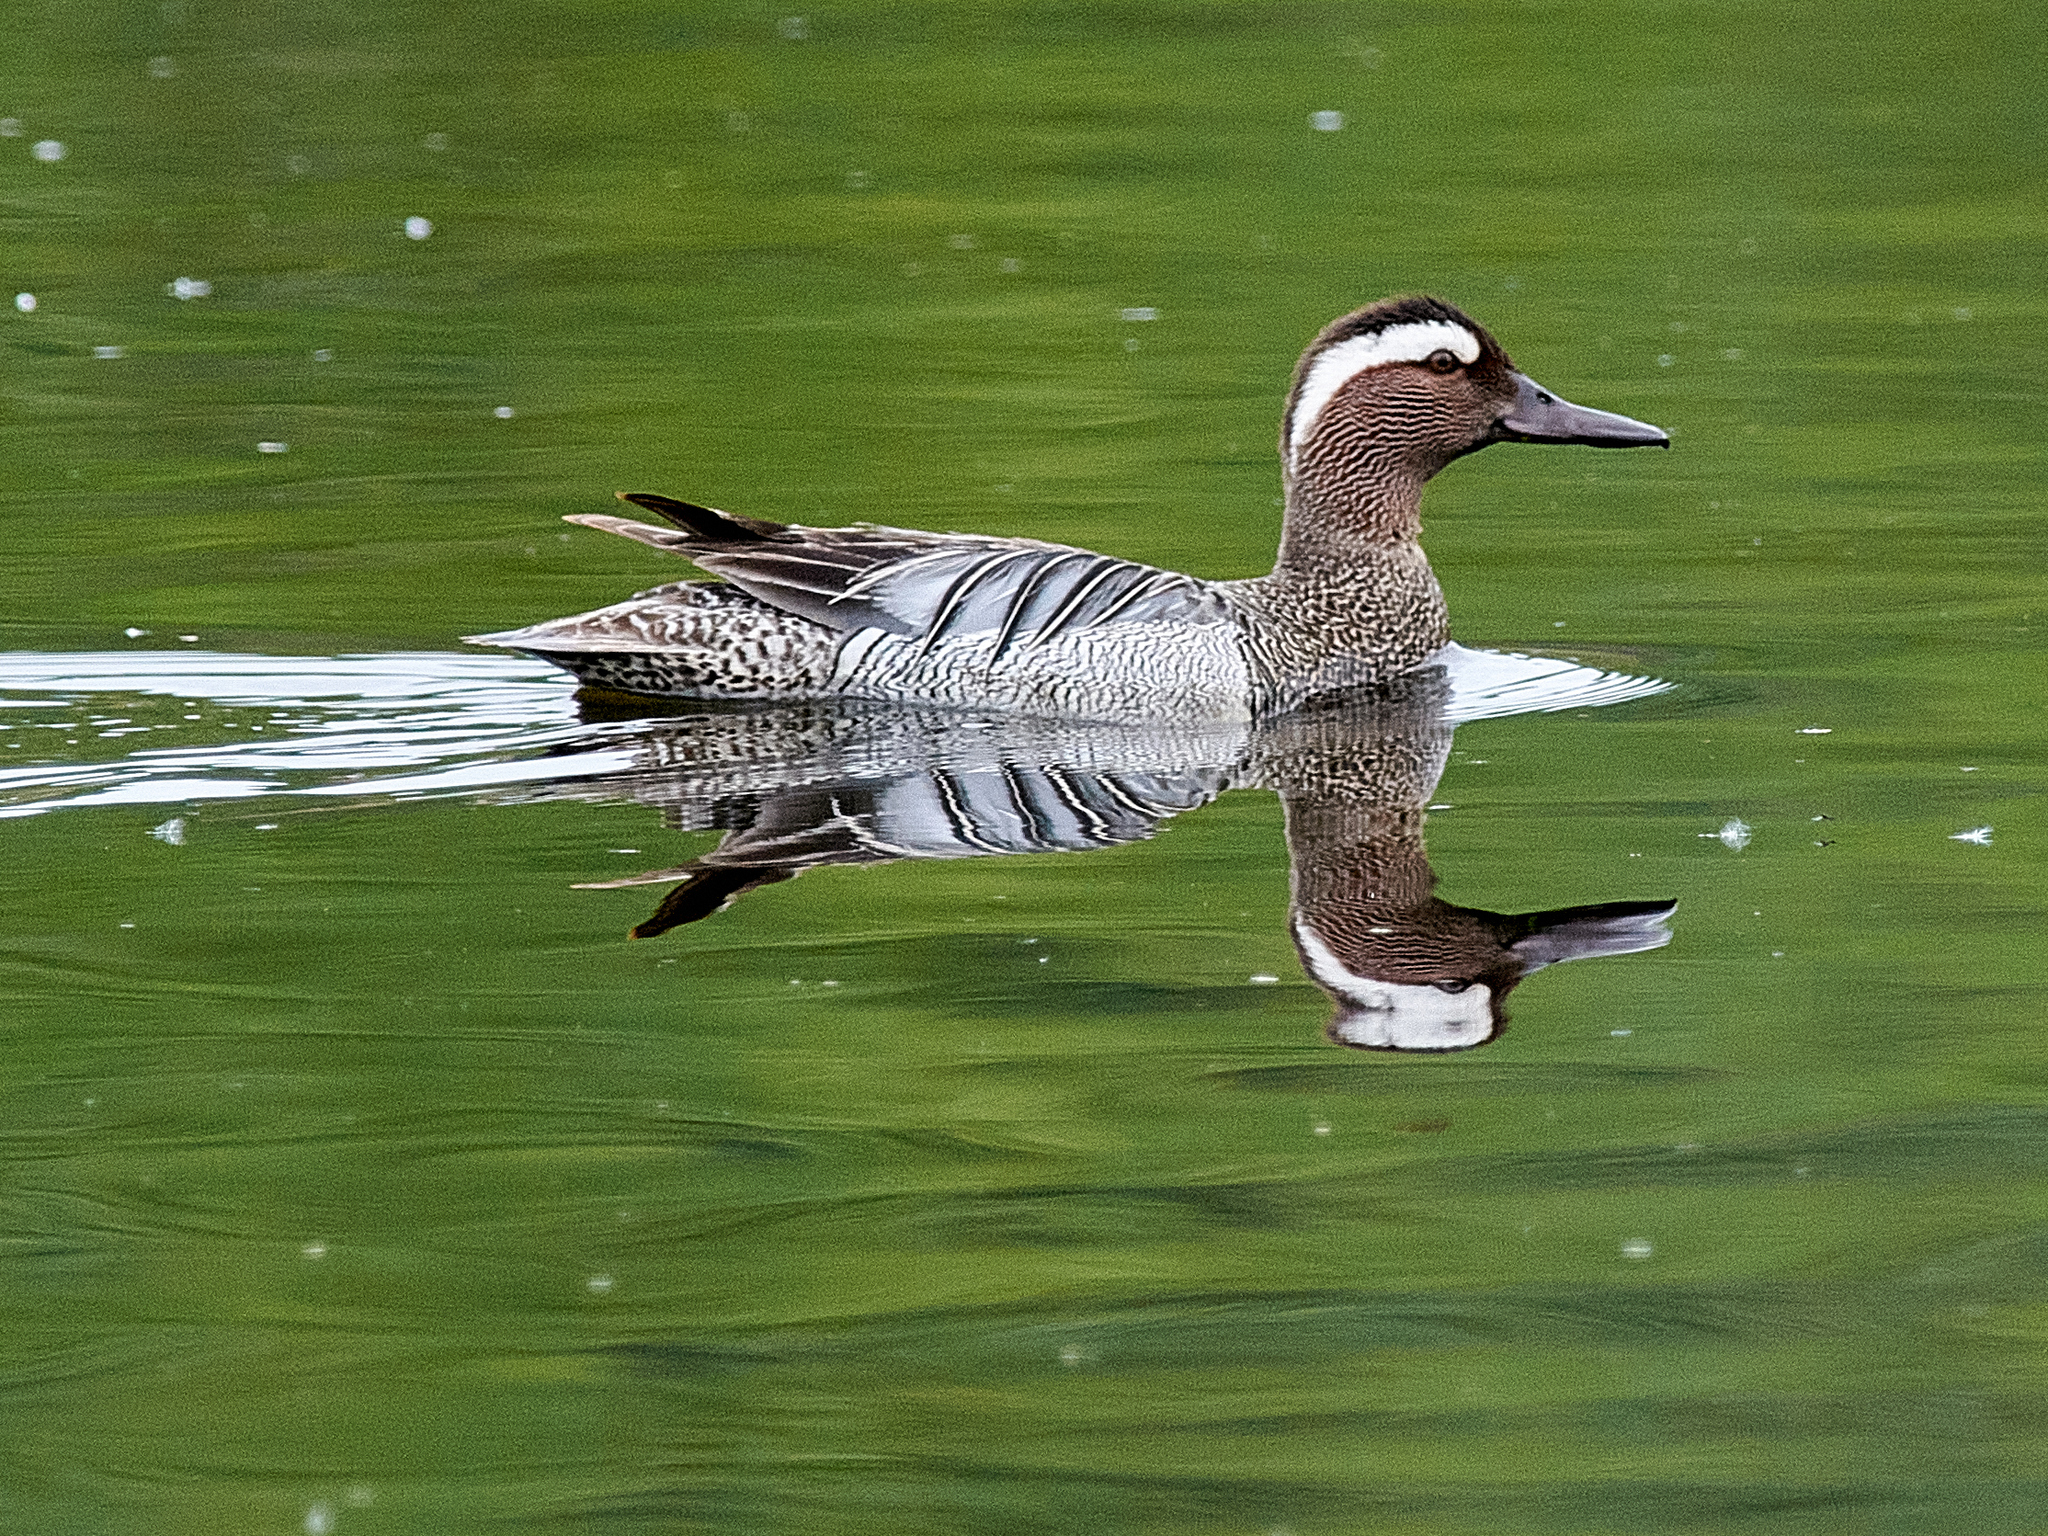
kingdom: Animalia
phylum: Chordata
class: Aves
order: Anseriformes
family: Anatidae
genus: Spatula
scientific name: Spatula querquedula
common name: Garganey
